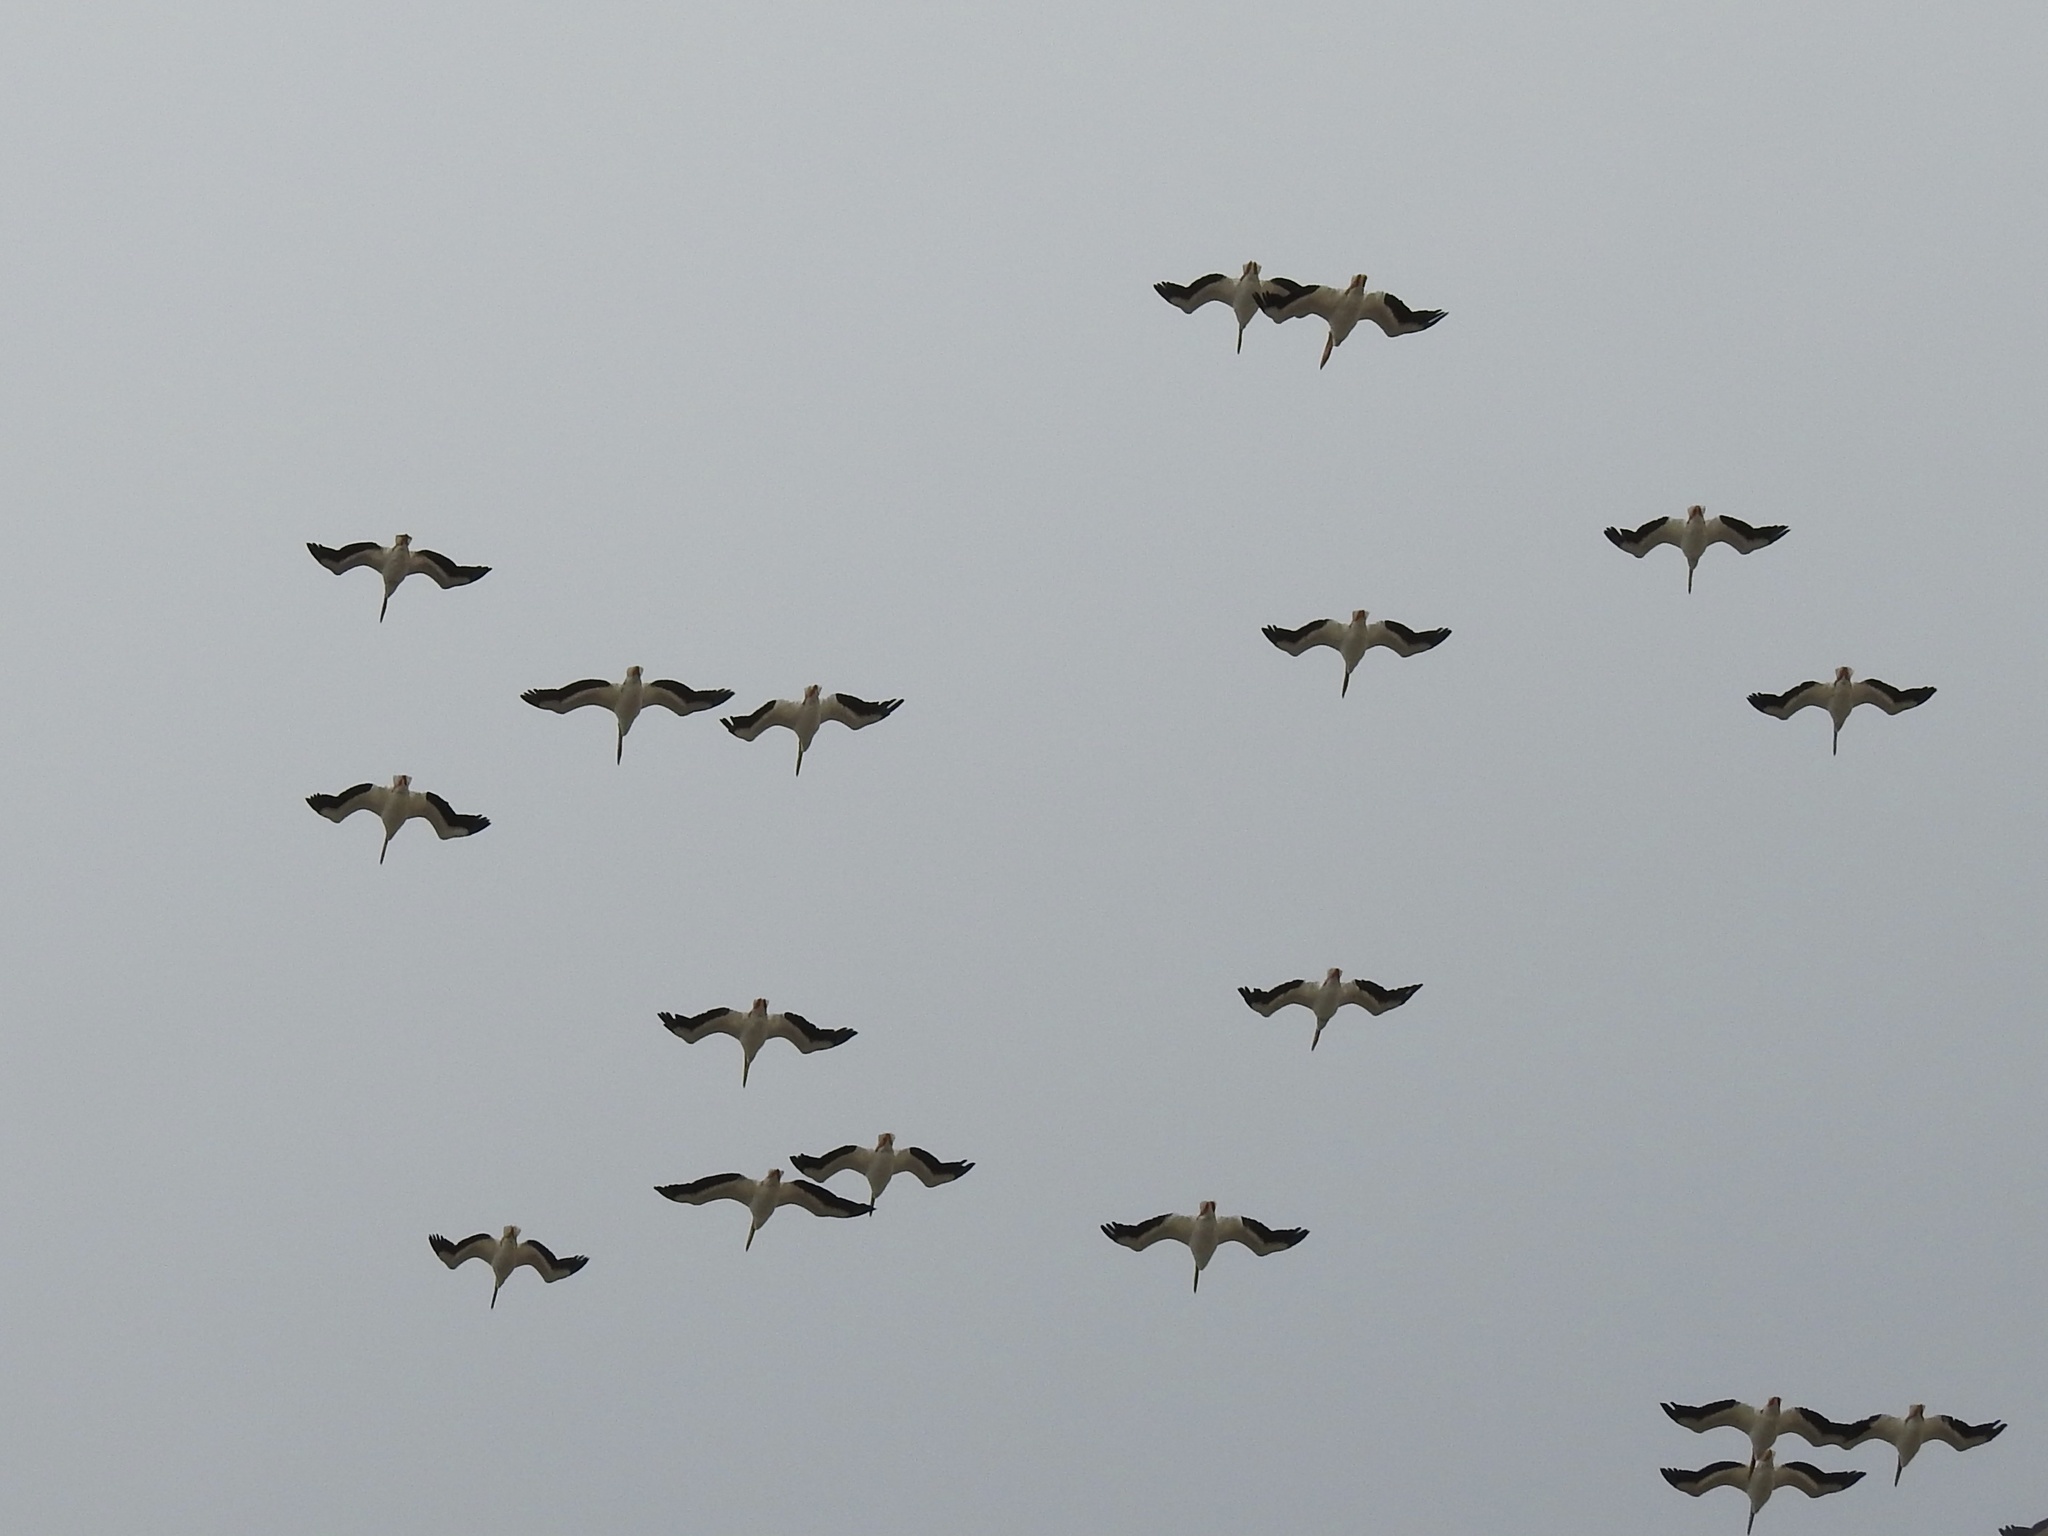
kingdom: Animalia
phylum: Chordata
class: Aves
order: Pelecaniformes
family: Pelecanidae
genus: Pelecanus
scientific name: Pelecanus erythrorhynchos
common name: American white pelican
